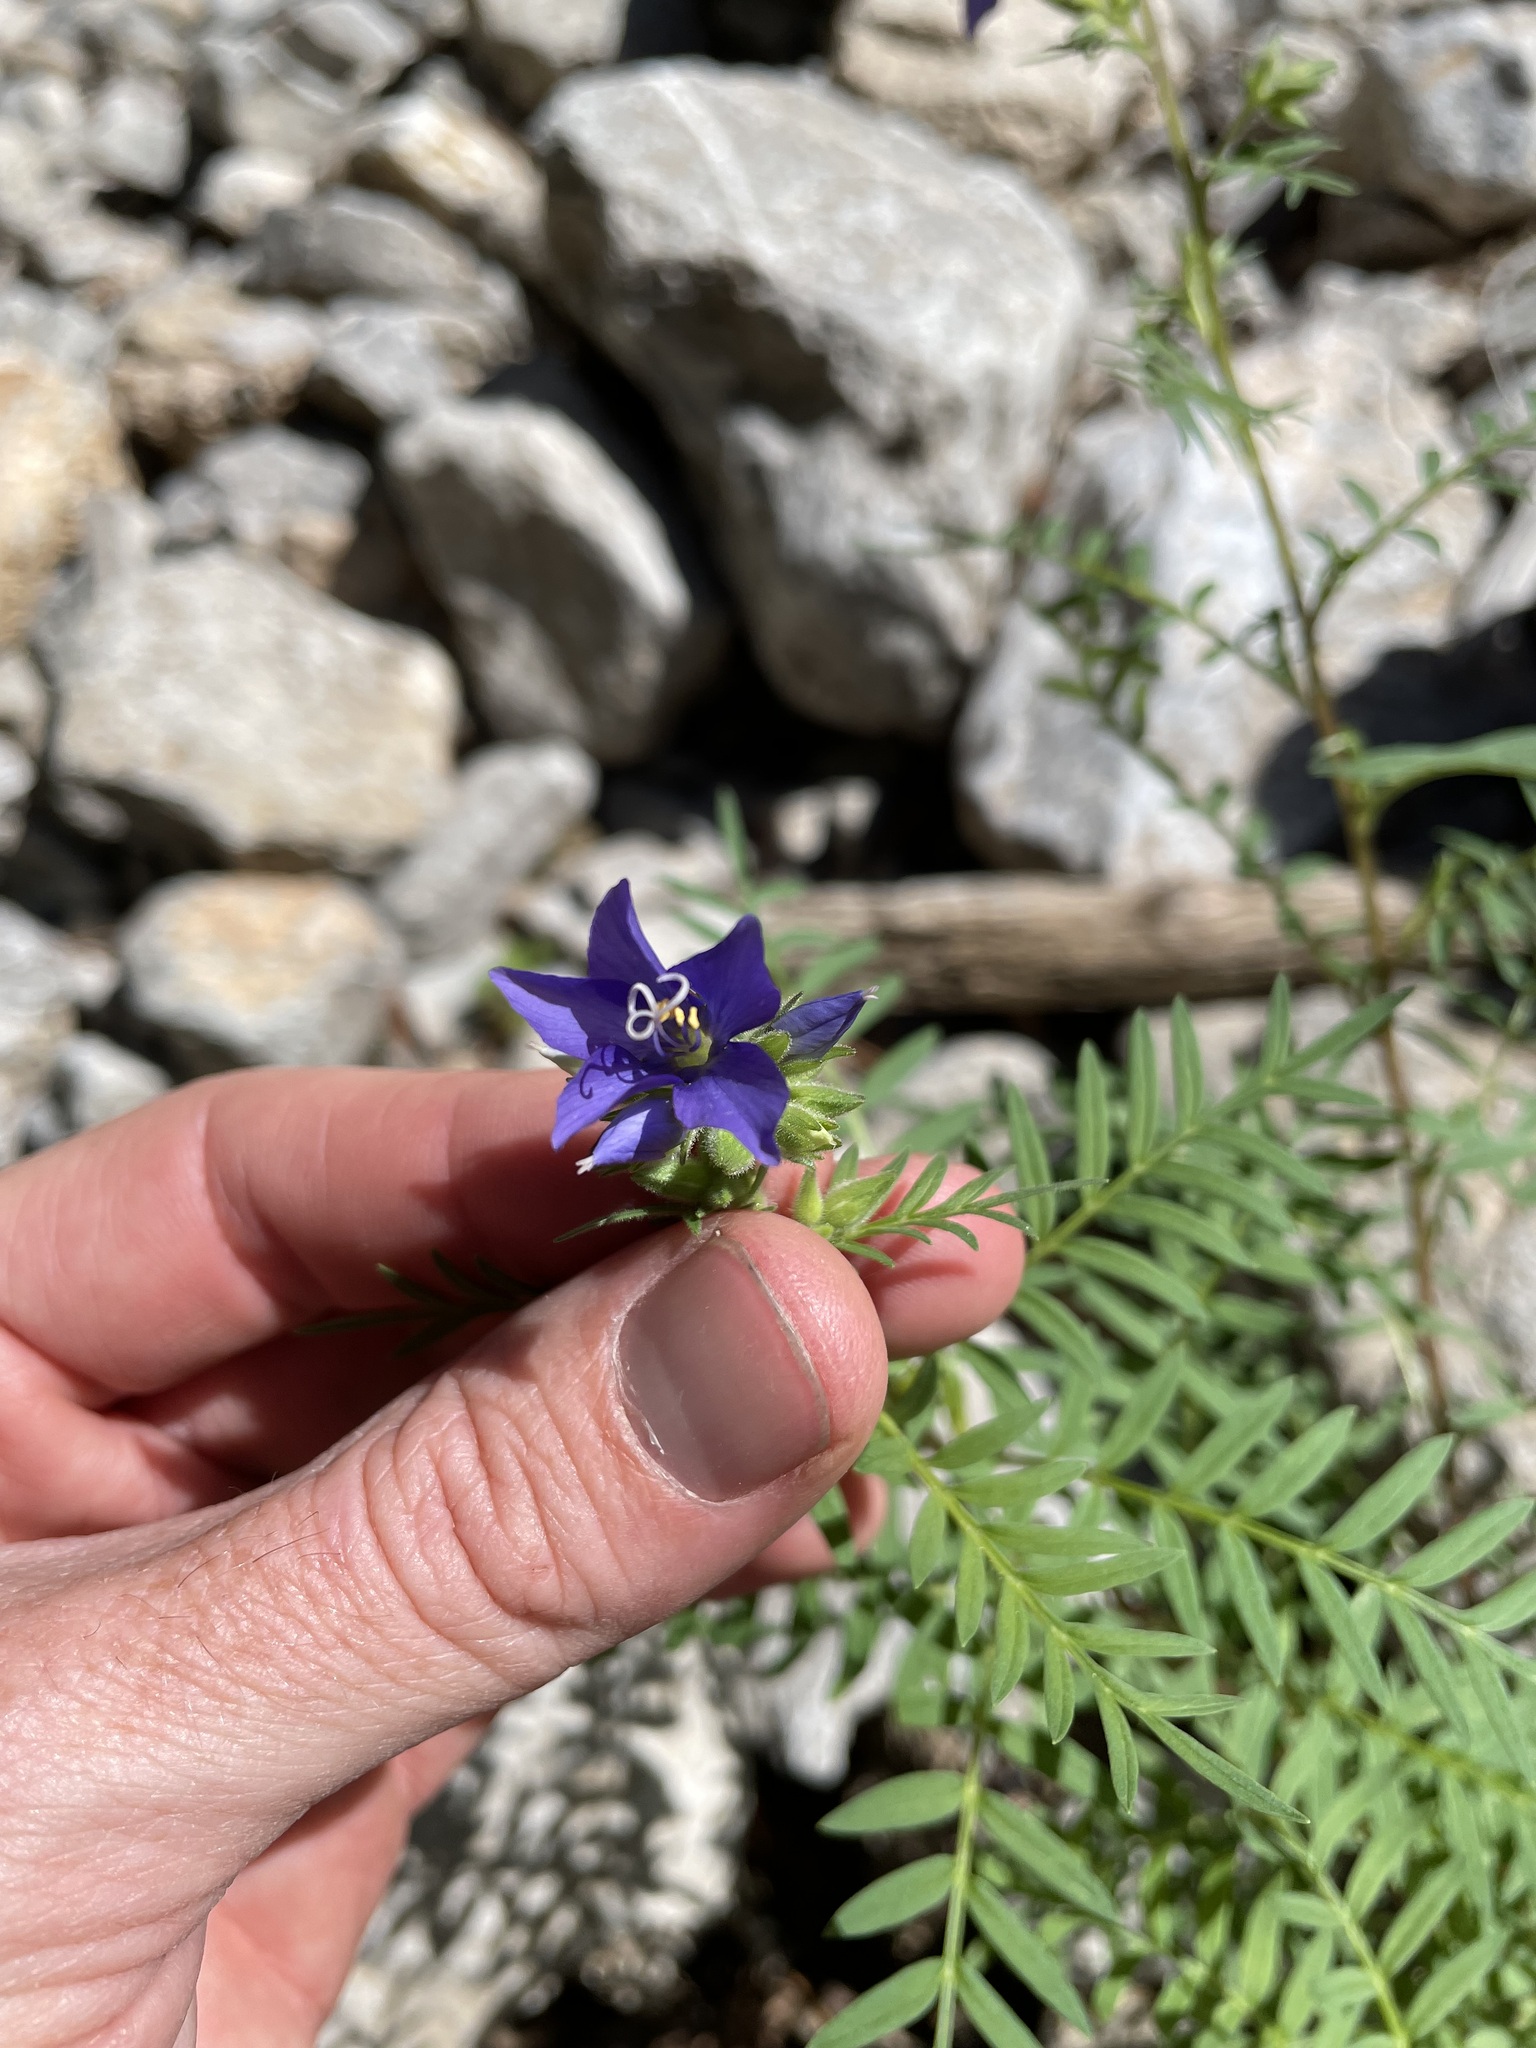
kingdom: Plantae
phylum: Tracheophyta
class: Magnoliopsida
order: Ericales
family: Polemoniaceae
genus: Polemonium
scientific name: Polemonium foliosissimum
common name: Leafy jacob's-ladder
